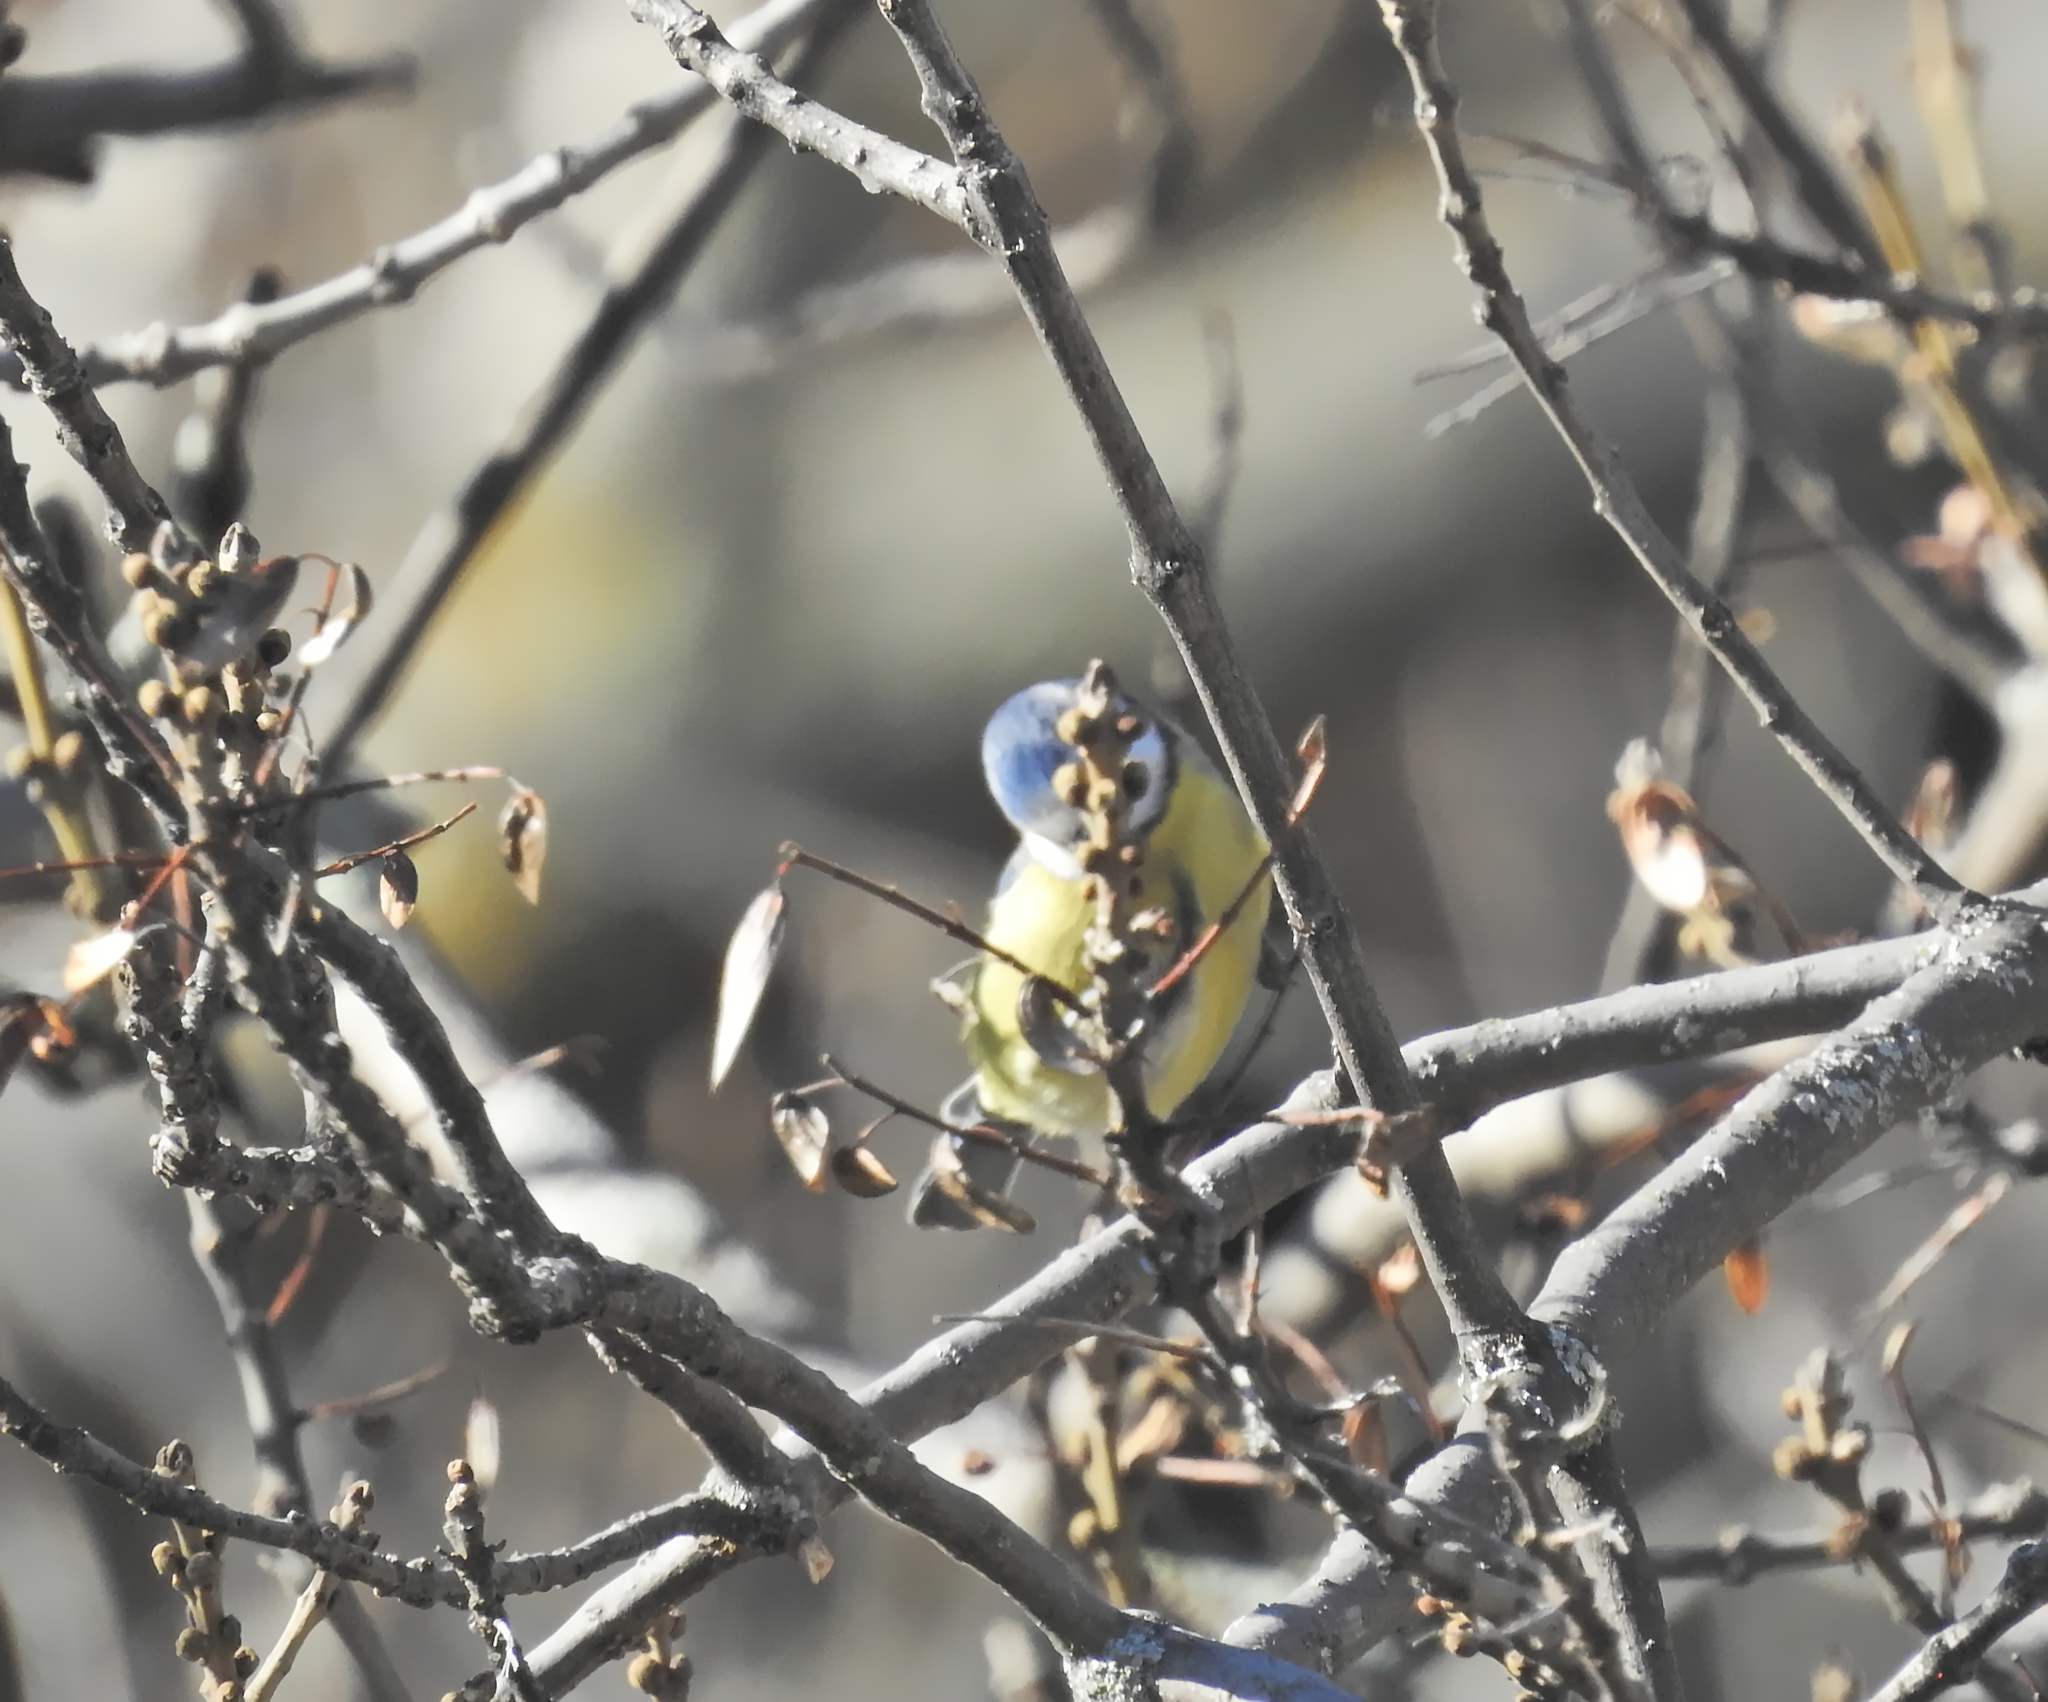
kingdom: Animalia
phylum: Chordata
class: Aves
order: Passeriformes
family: Paridae
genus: Cyanistes
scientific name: Cyanistes caeruleus
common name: Eurasian blue tit
